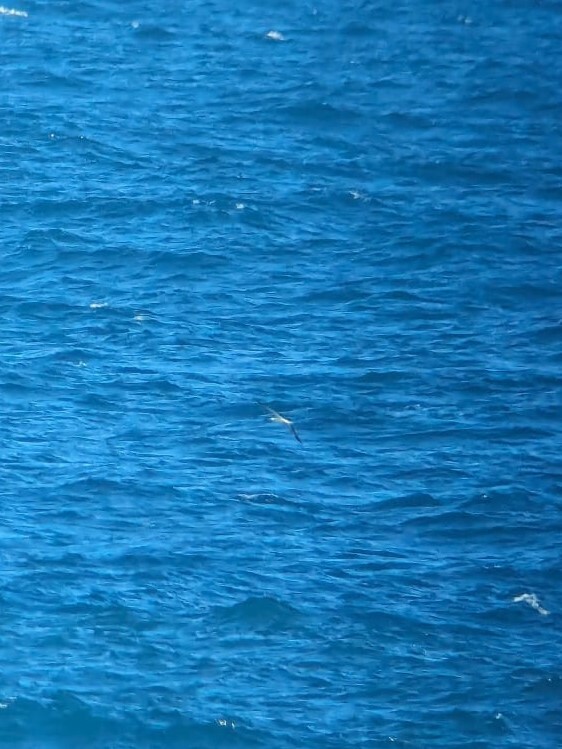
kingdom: Animalia
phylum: Chordata
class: Aves
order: Suliformes
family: Sulidae
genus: Sula
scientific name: Sula sula
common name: Red-footed booby
